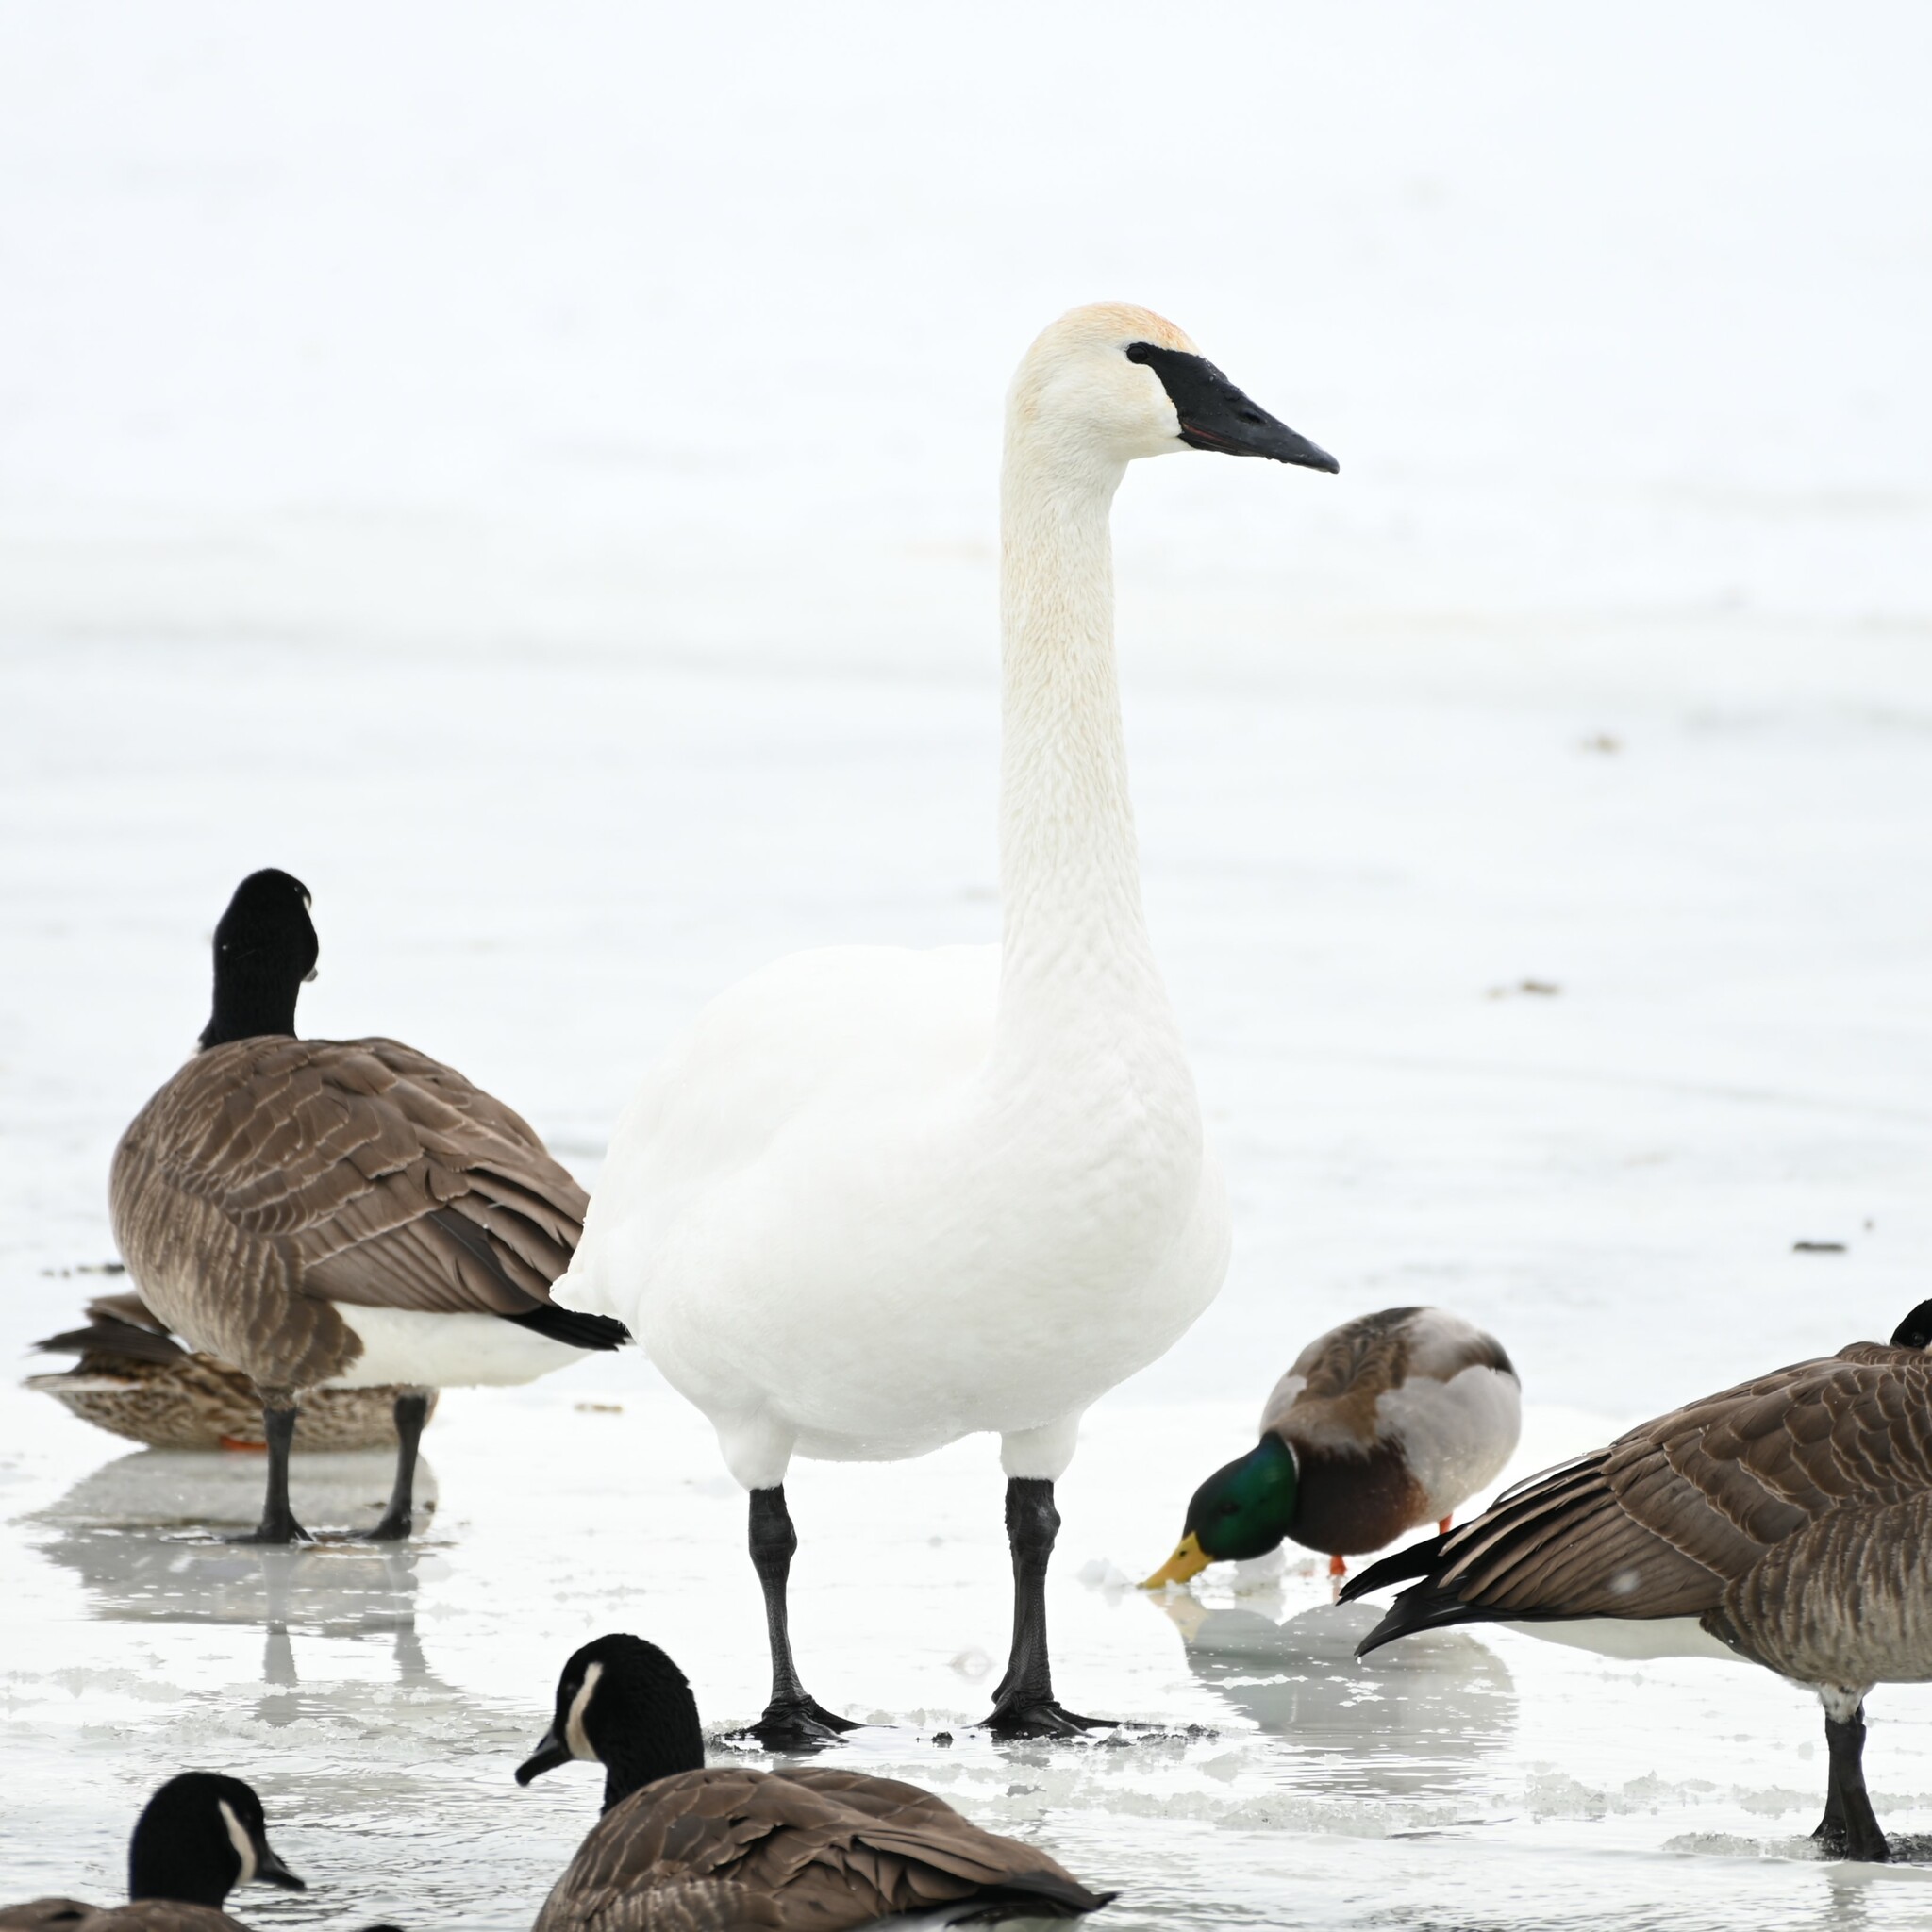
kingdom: Animalia
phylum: Chordata
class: Aves
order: Anseriformes
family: Anatidae
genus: Cygnus
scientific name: Cygnus buccinator
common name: Trumpeter swan
